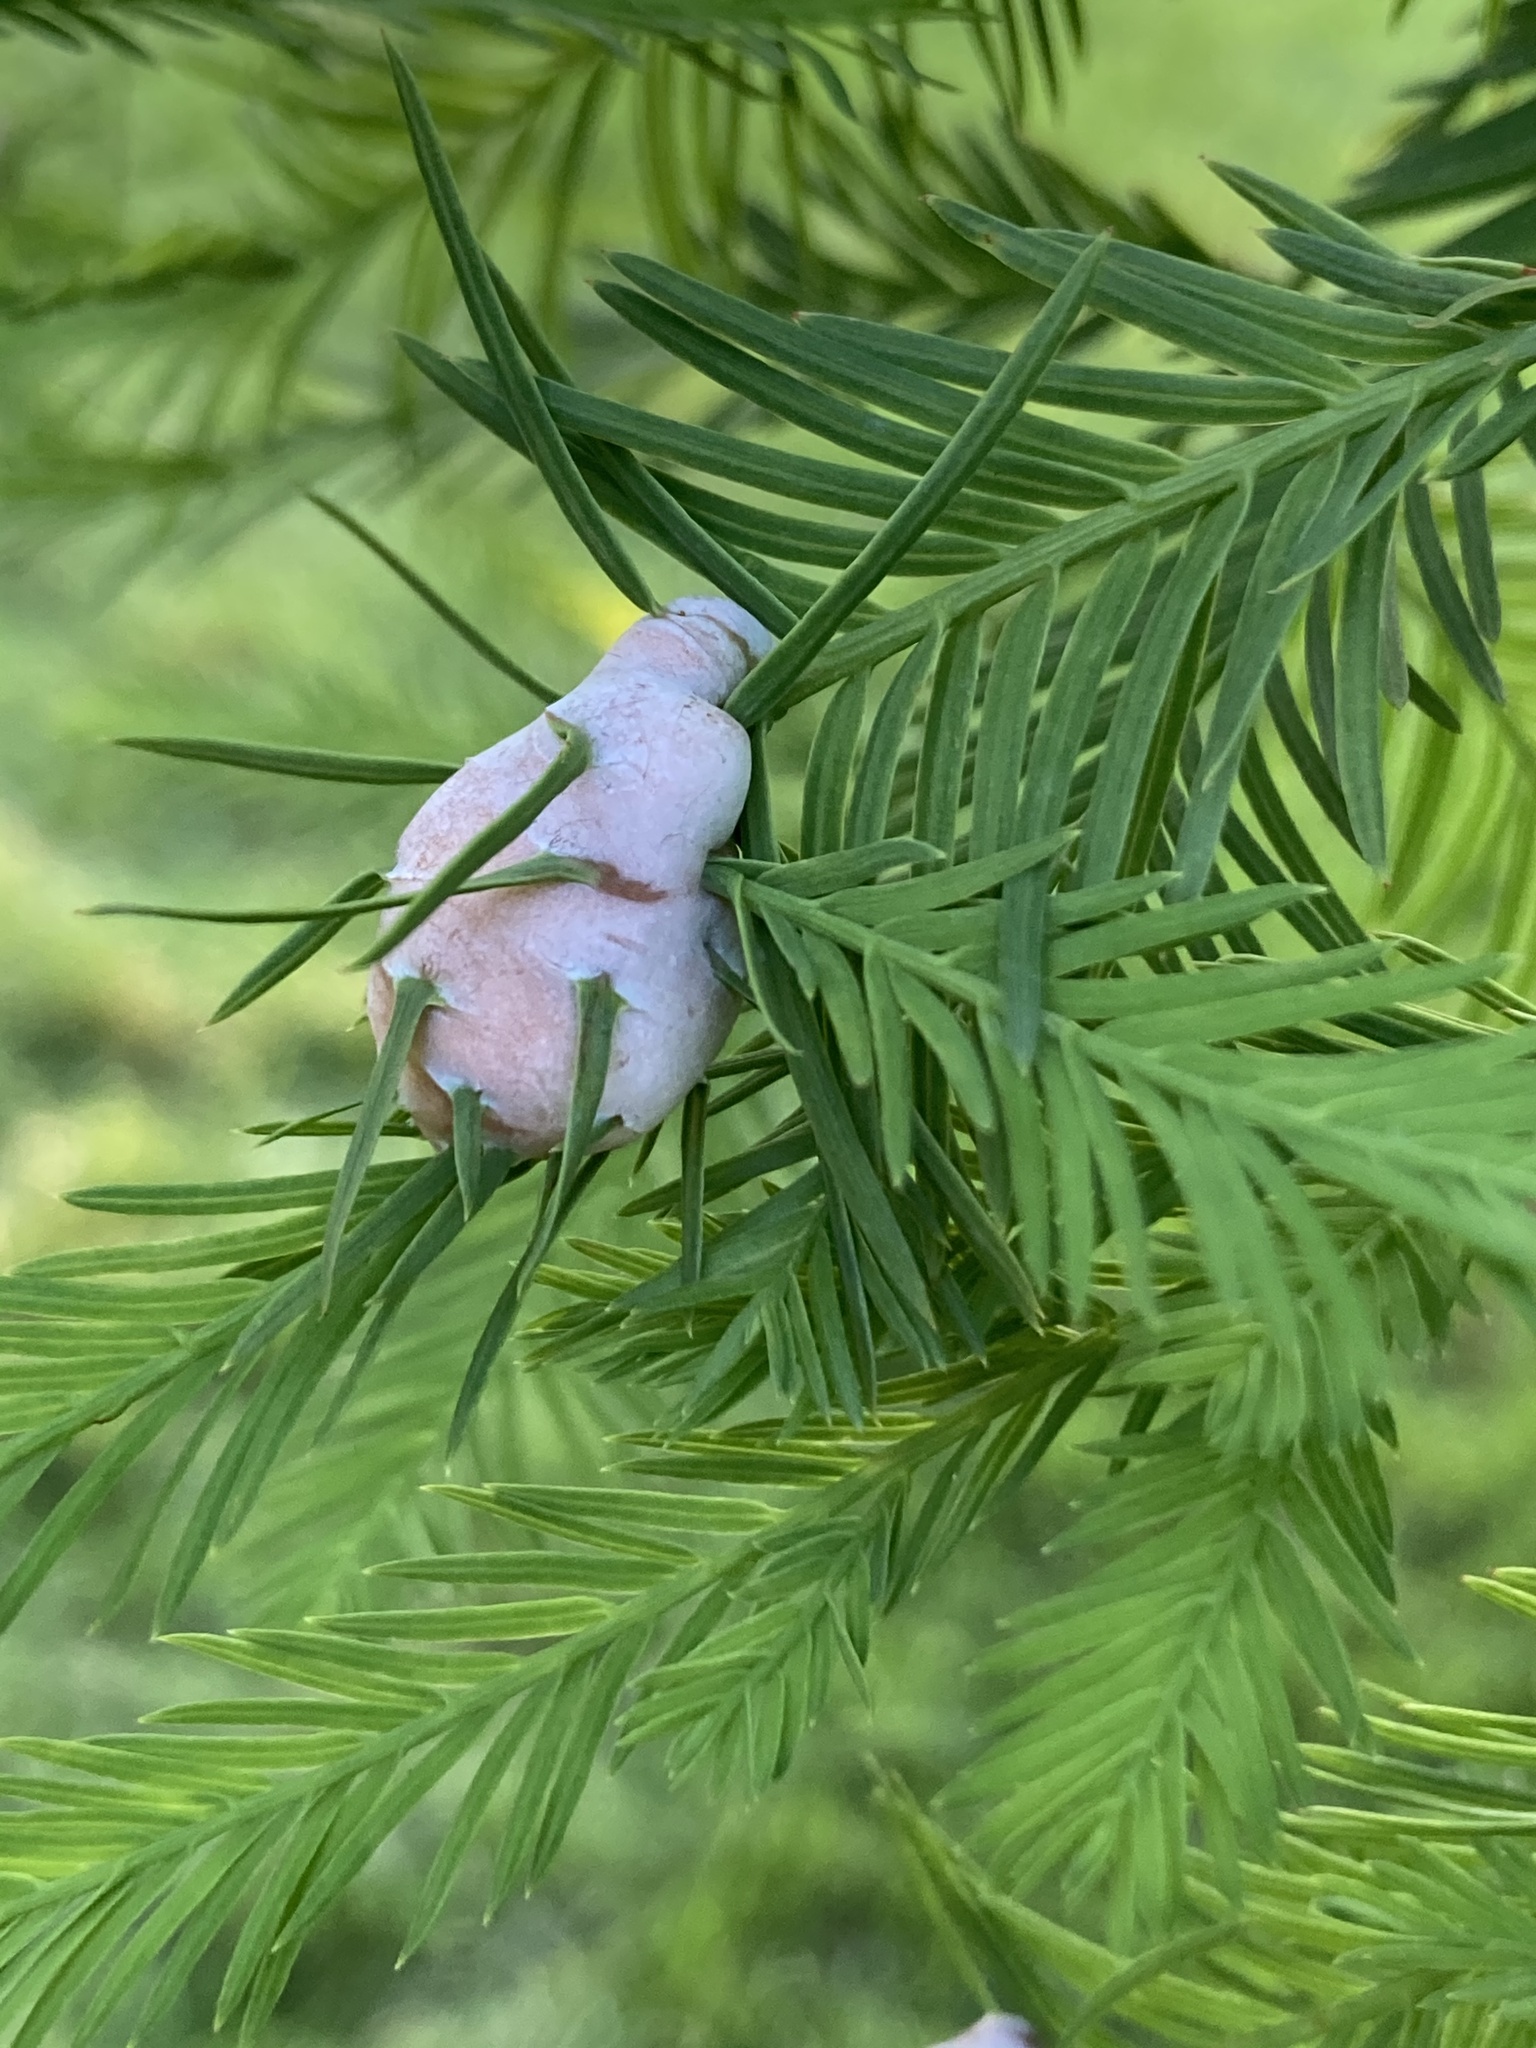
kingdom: Animalia
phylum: Arthropoda
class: Insecta
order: Diptera
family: Cecidomyiidae
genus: Taxodiomyia
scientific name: Taxodiomyia cupressiananassa
